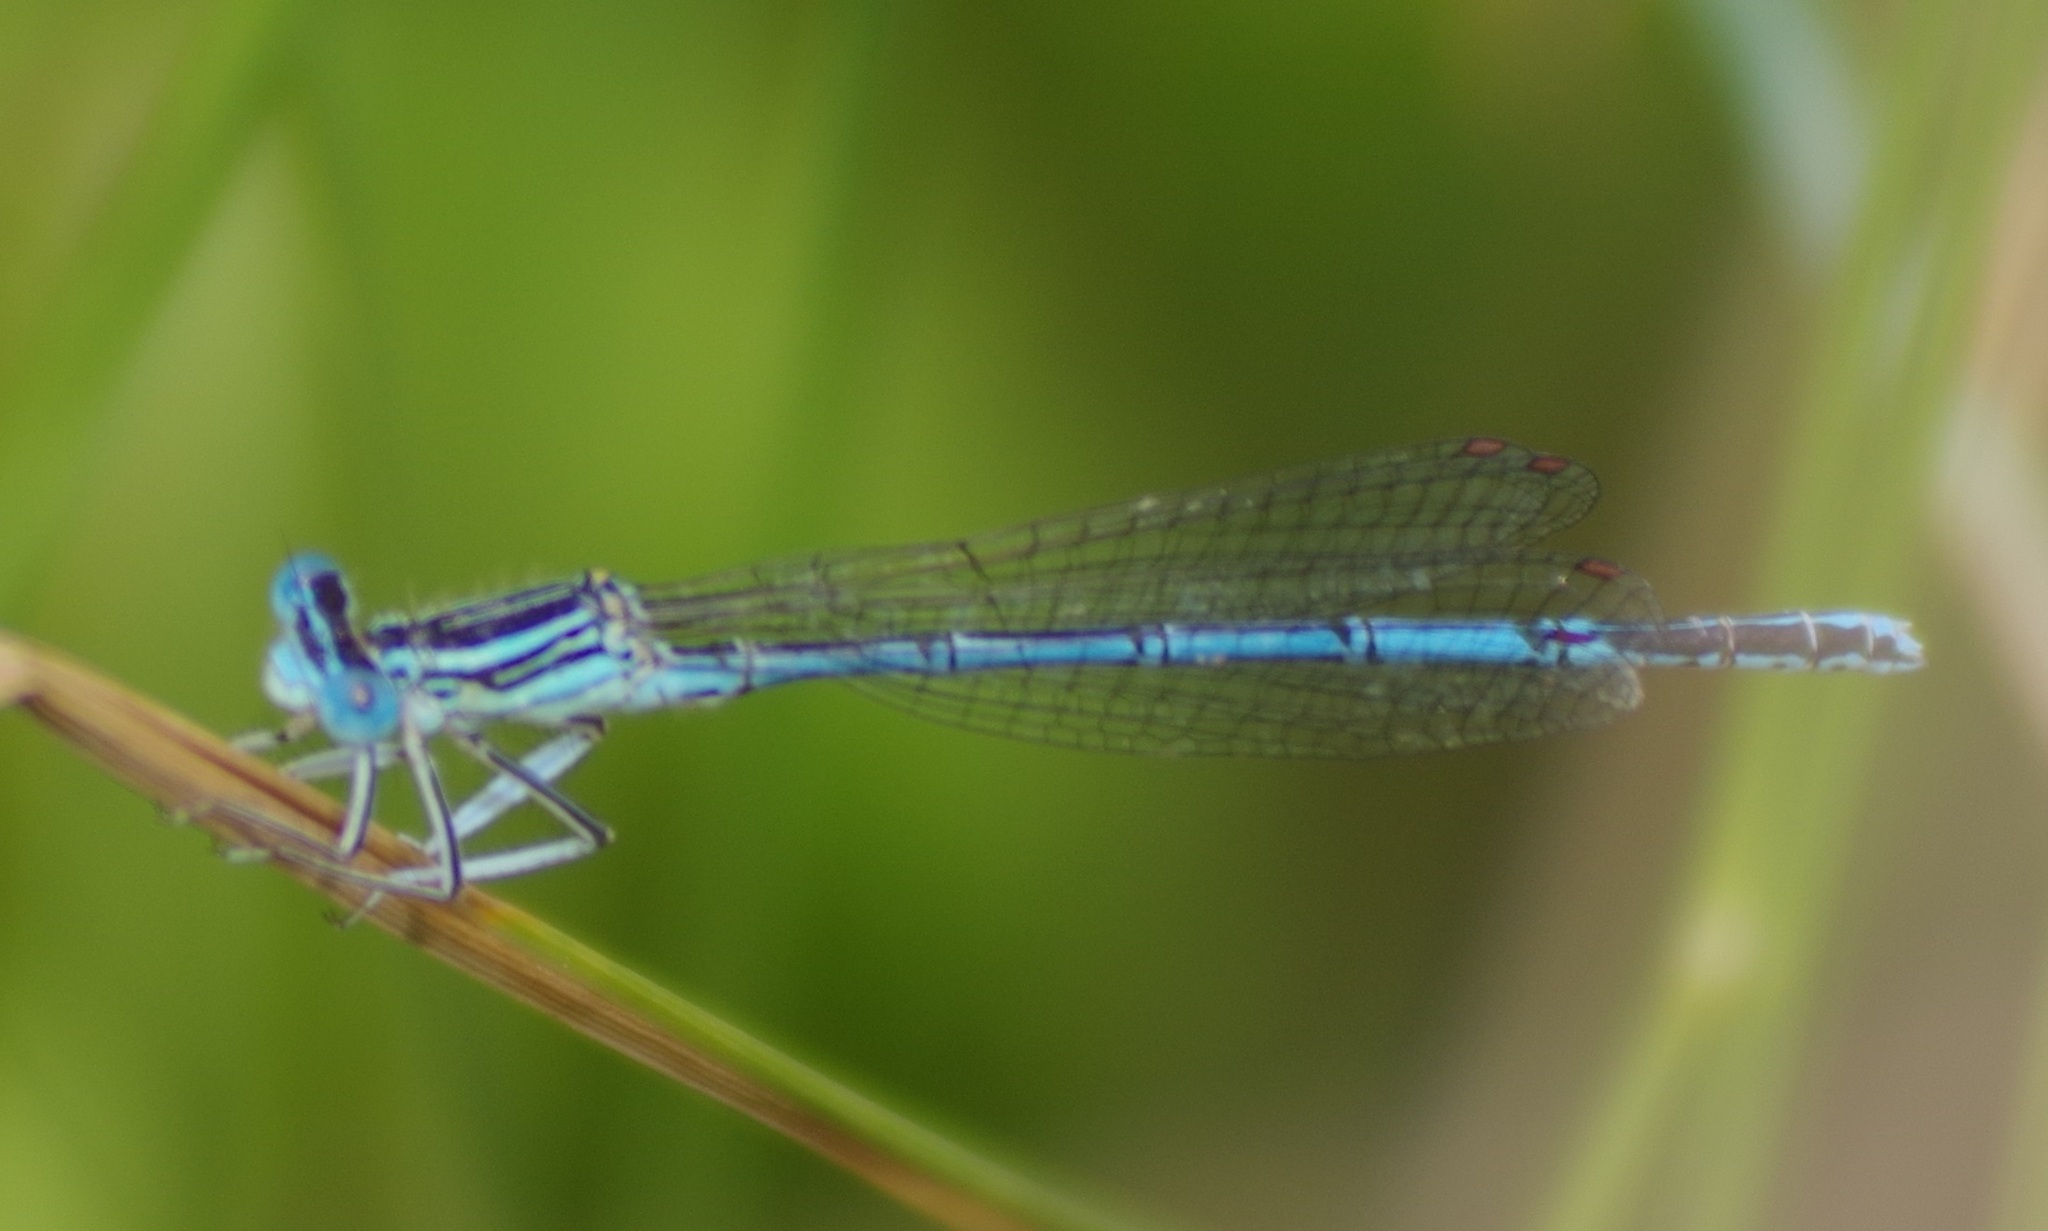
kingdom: Animalia
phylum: Arthropoda
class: Insecta
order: Odonata
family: Platycnemididae
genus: Platycnemis
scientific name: Platycnemis pennipes
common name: White-legged damselfly
